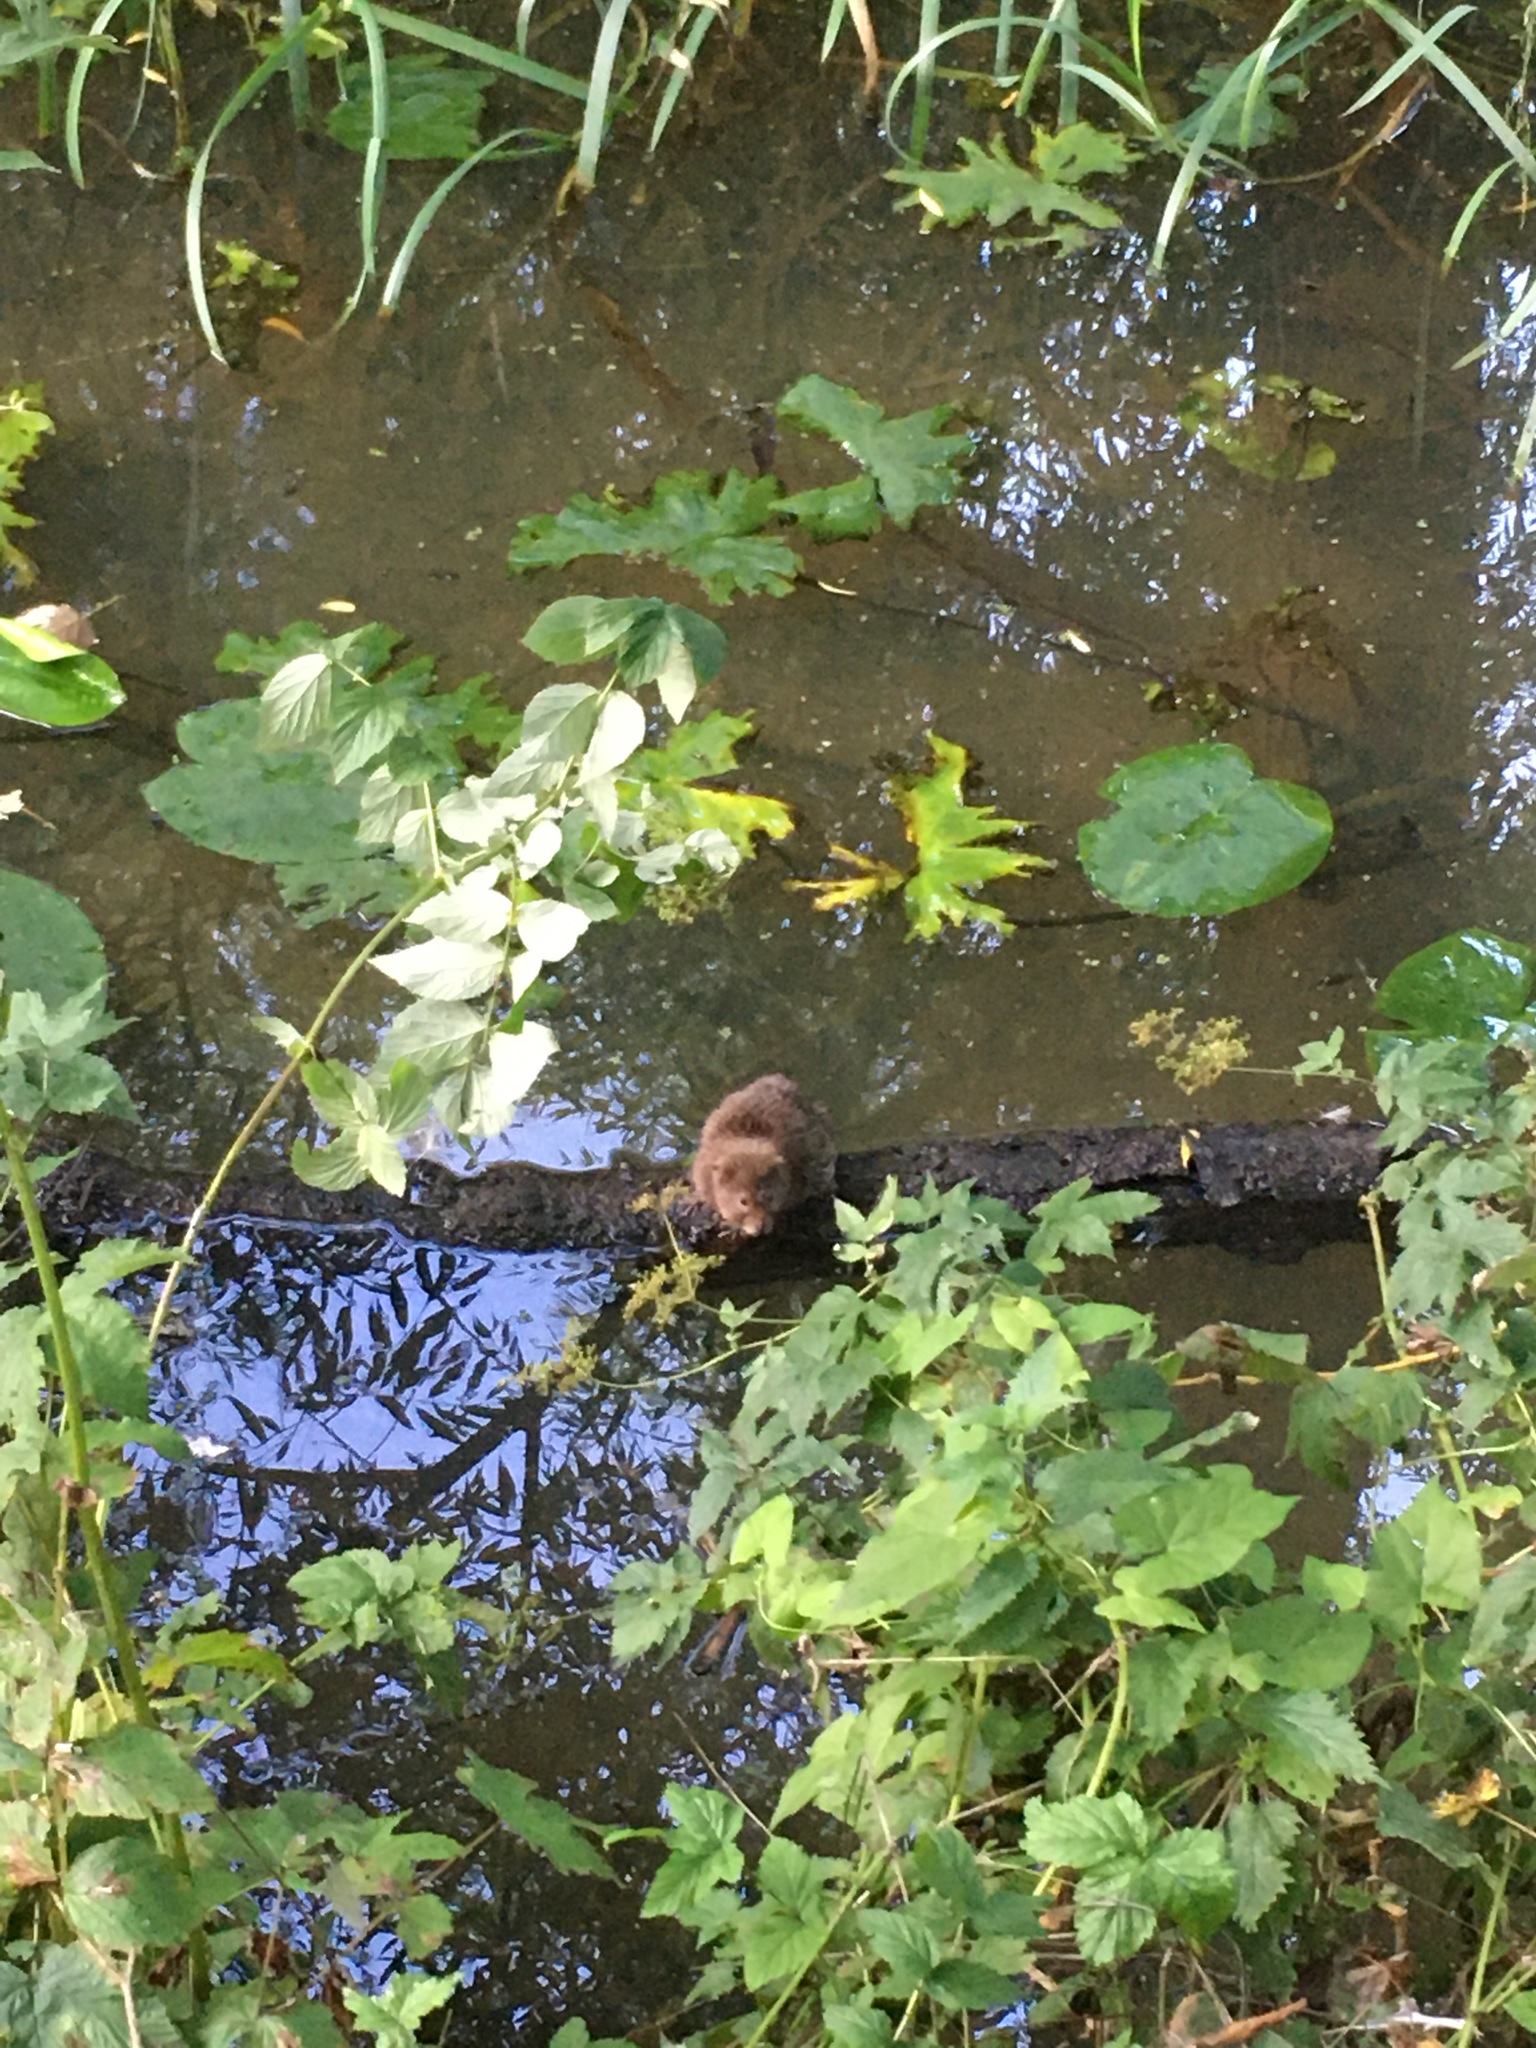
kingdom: Animalia
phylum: Chordata
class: Mammalia
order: Rodentia
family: Cricetidae
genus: Arvicola
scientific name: Arvicola amphibius
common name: European water vole
